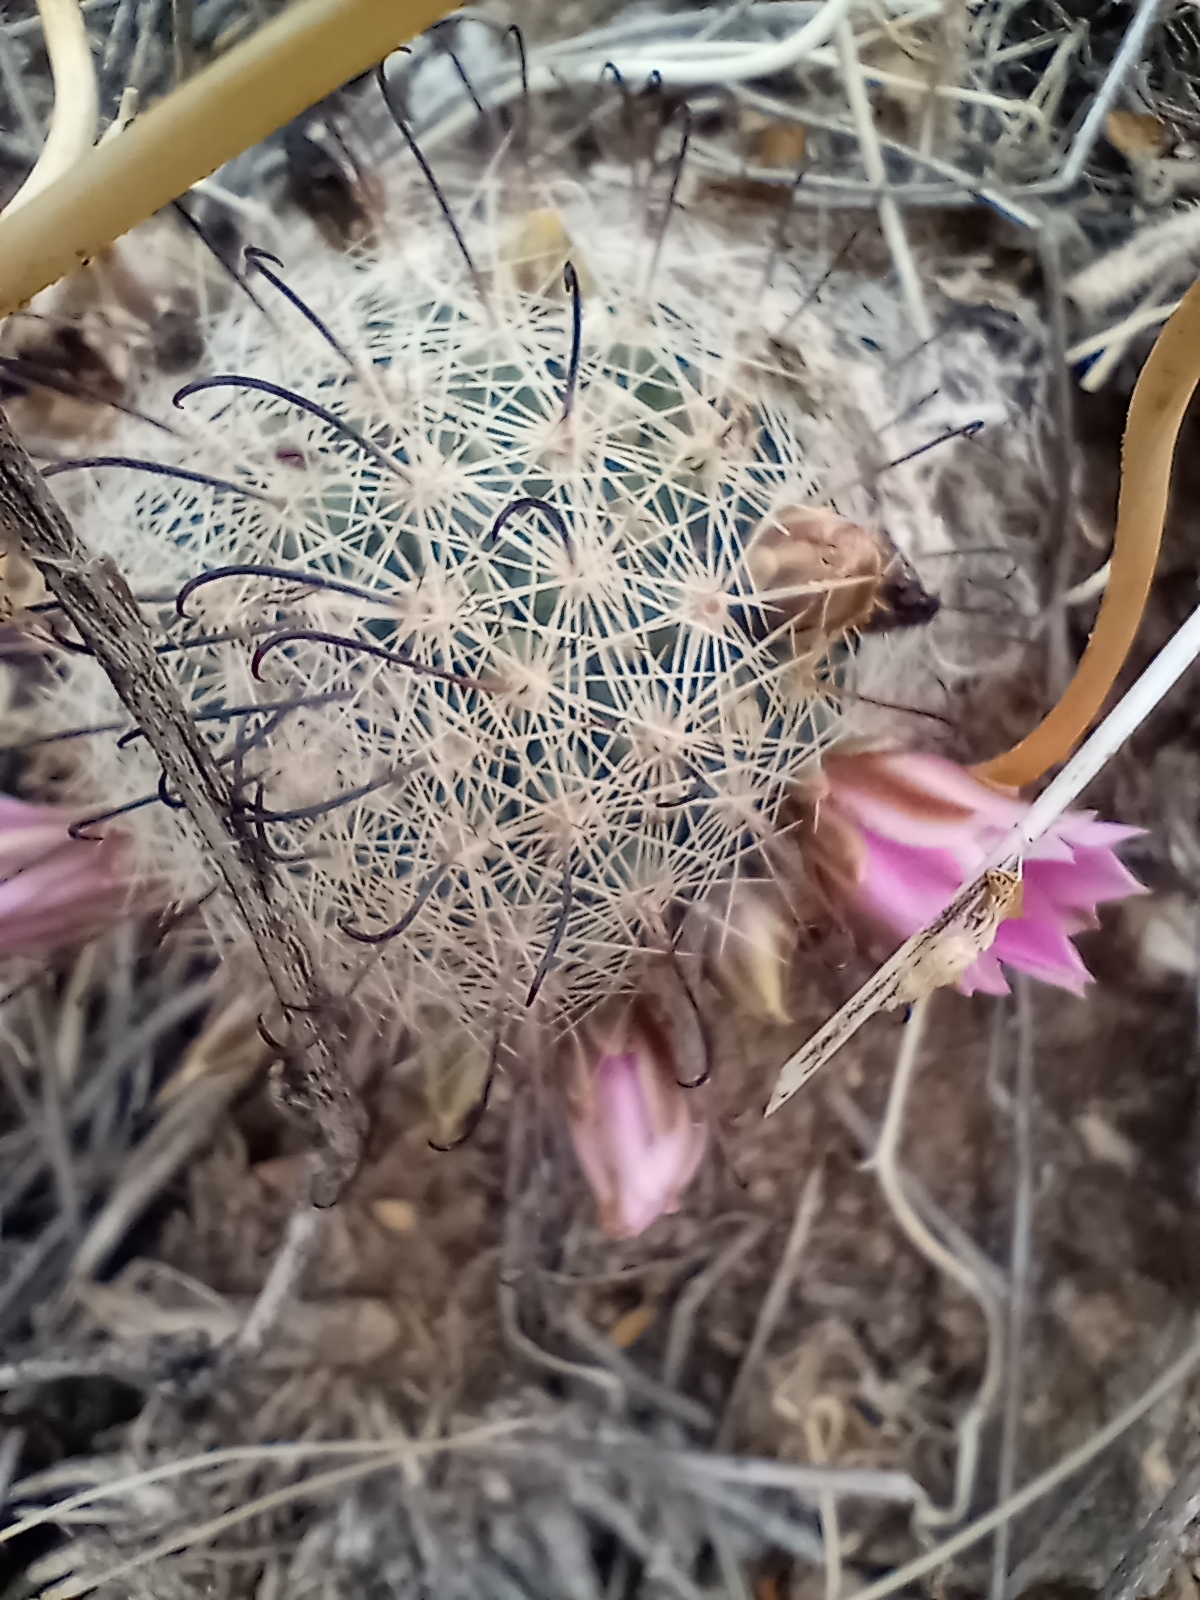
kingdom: Plantae
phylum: Tracheophyta
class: Magnoliopsida
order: Caryophyllales
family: Cactaceae
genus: Cochemiea
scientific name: Cochemiea grahamii
